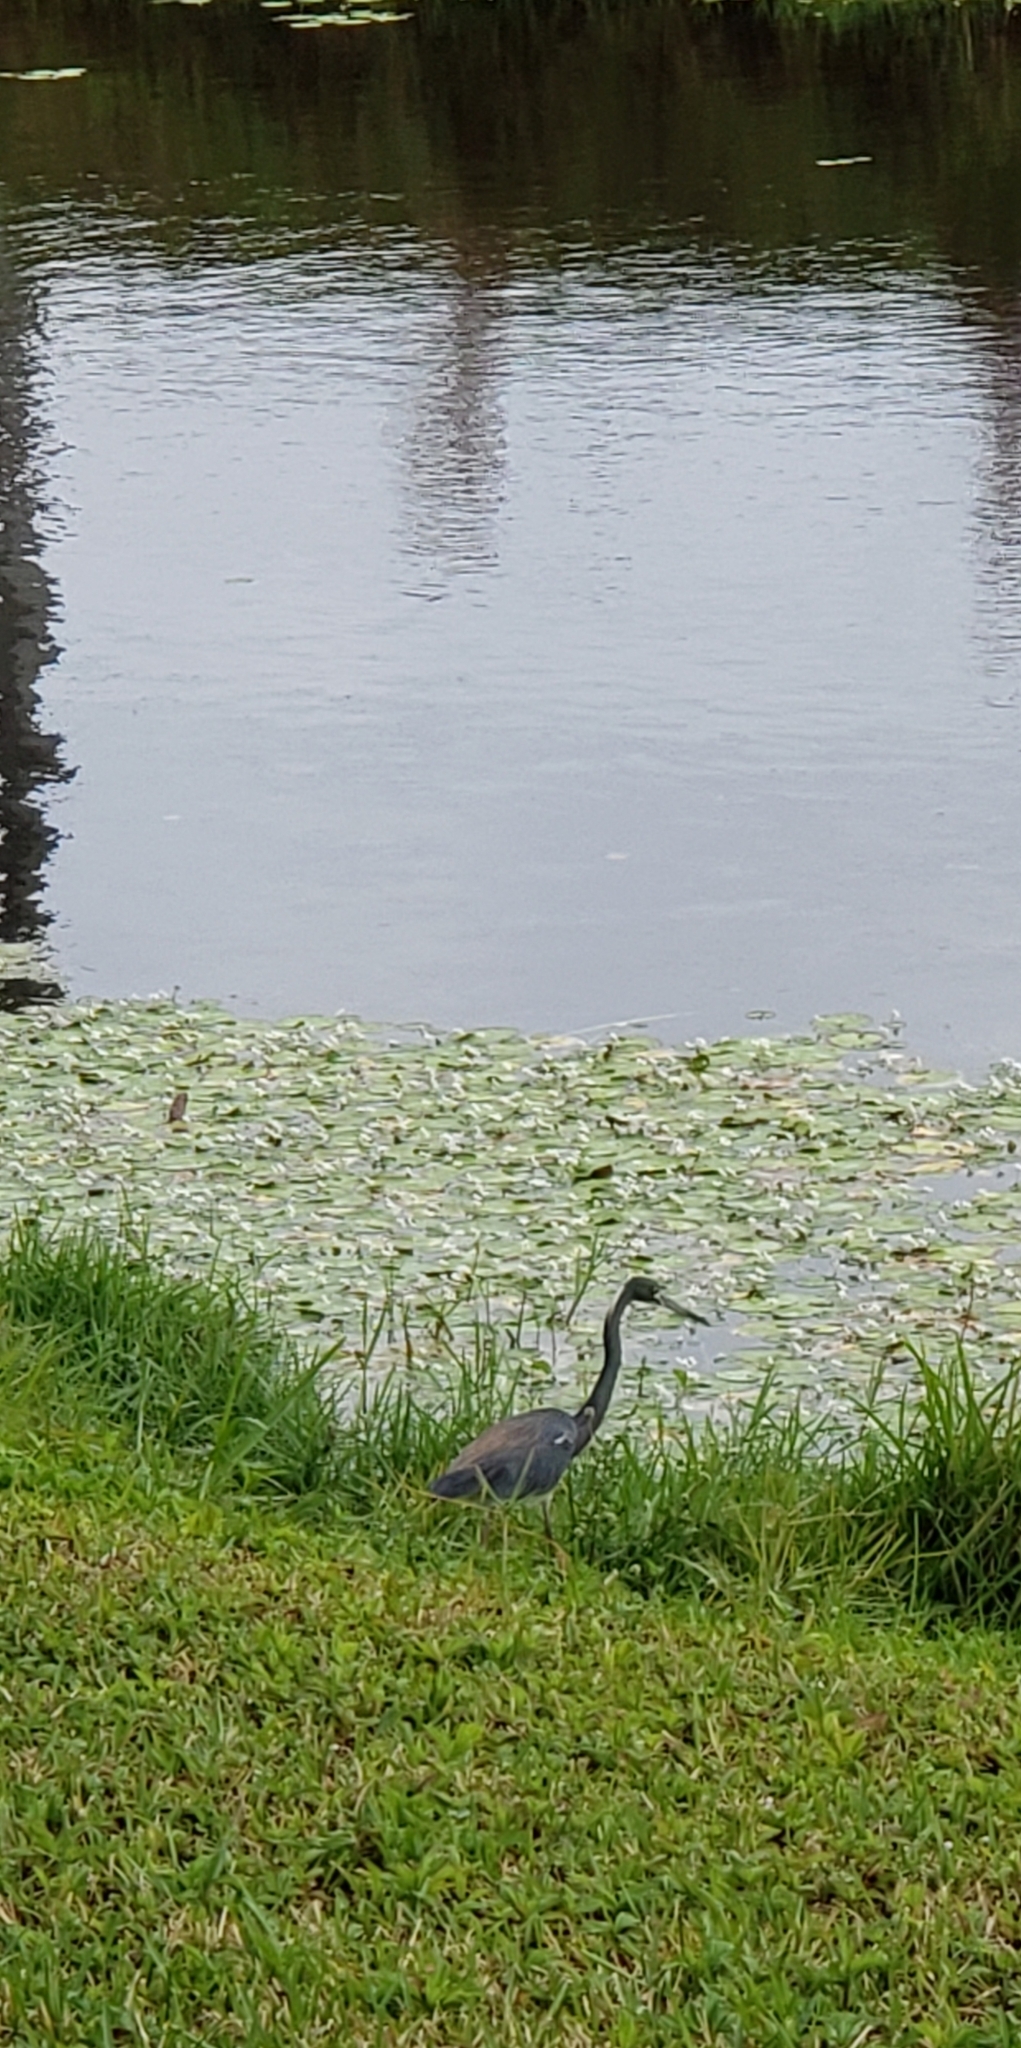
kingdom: Animalia
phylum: Chordata
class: Aves
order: Pelecaniformes
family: Ardeidae
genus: Egretta
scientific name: Egretta tricolor
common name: Tricolored heron
